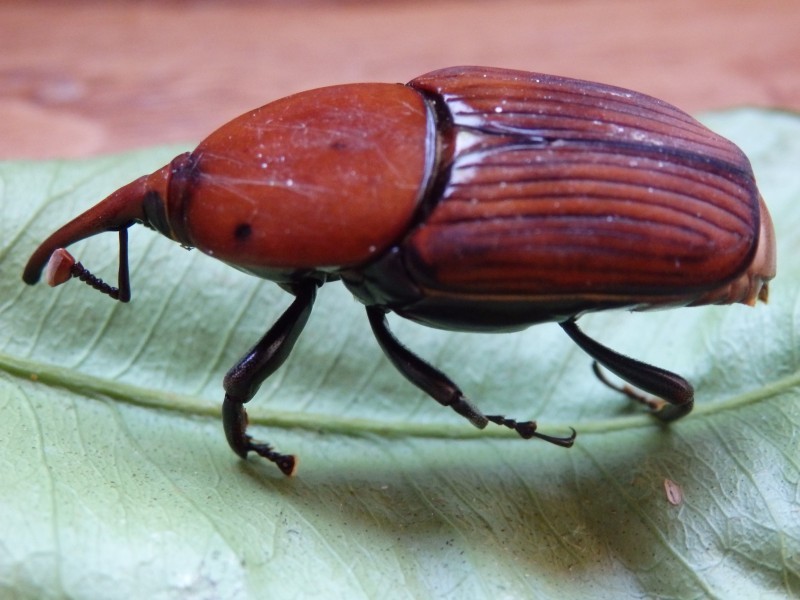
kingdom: Animalia
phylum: Arthropoda
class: Insecta
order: Coleoptera
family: Dryophthoridae
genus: Rhynchophorus
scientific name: Rhynchophorus ferrugineus
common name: Red palm weevil
